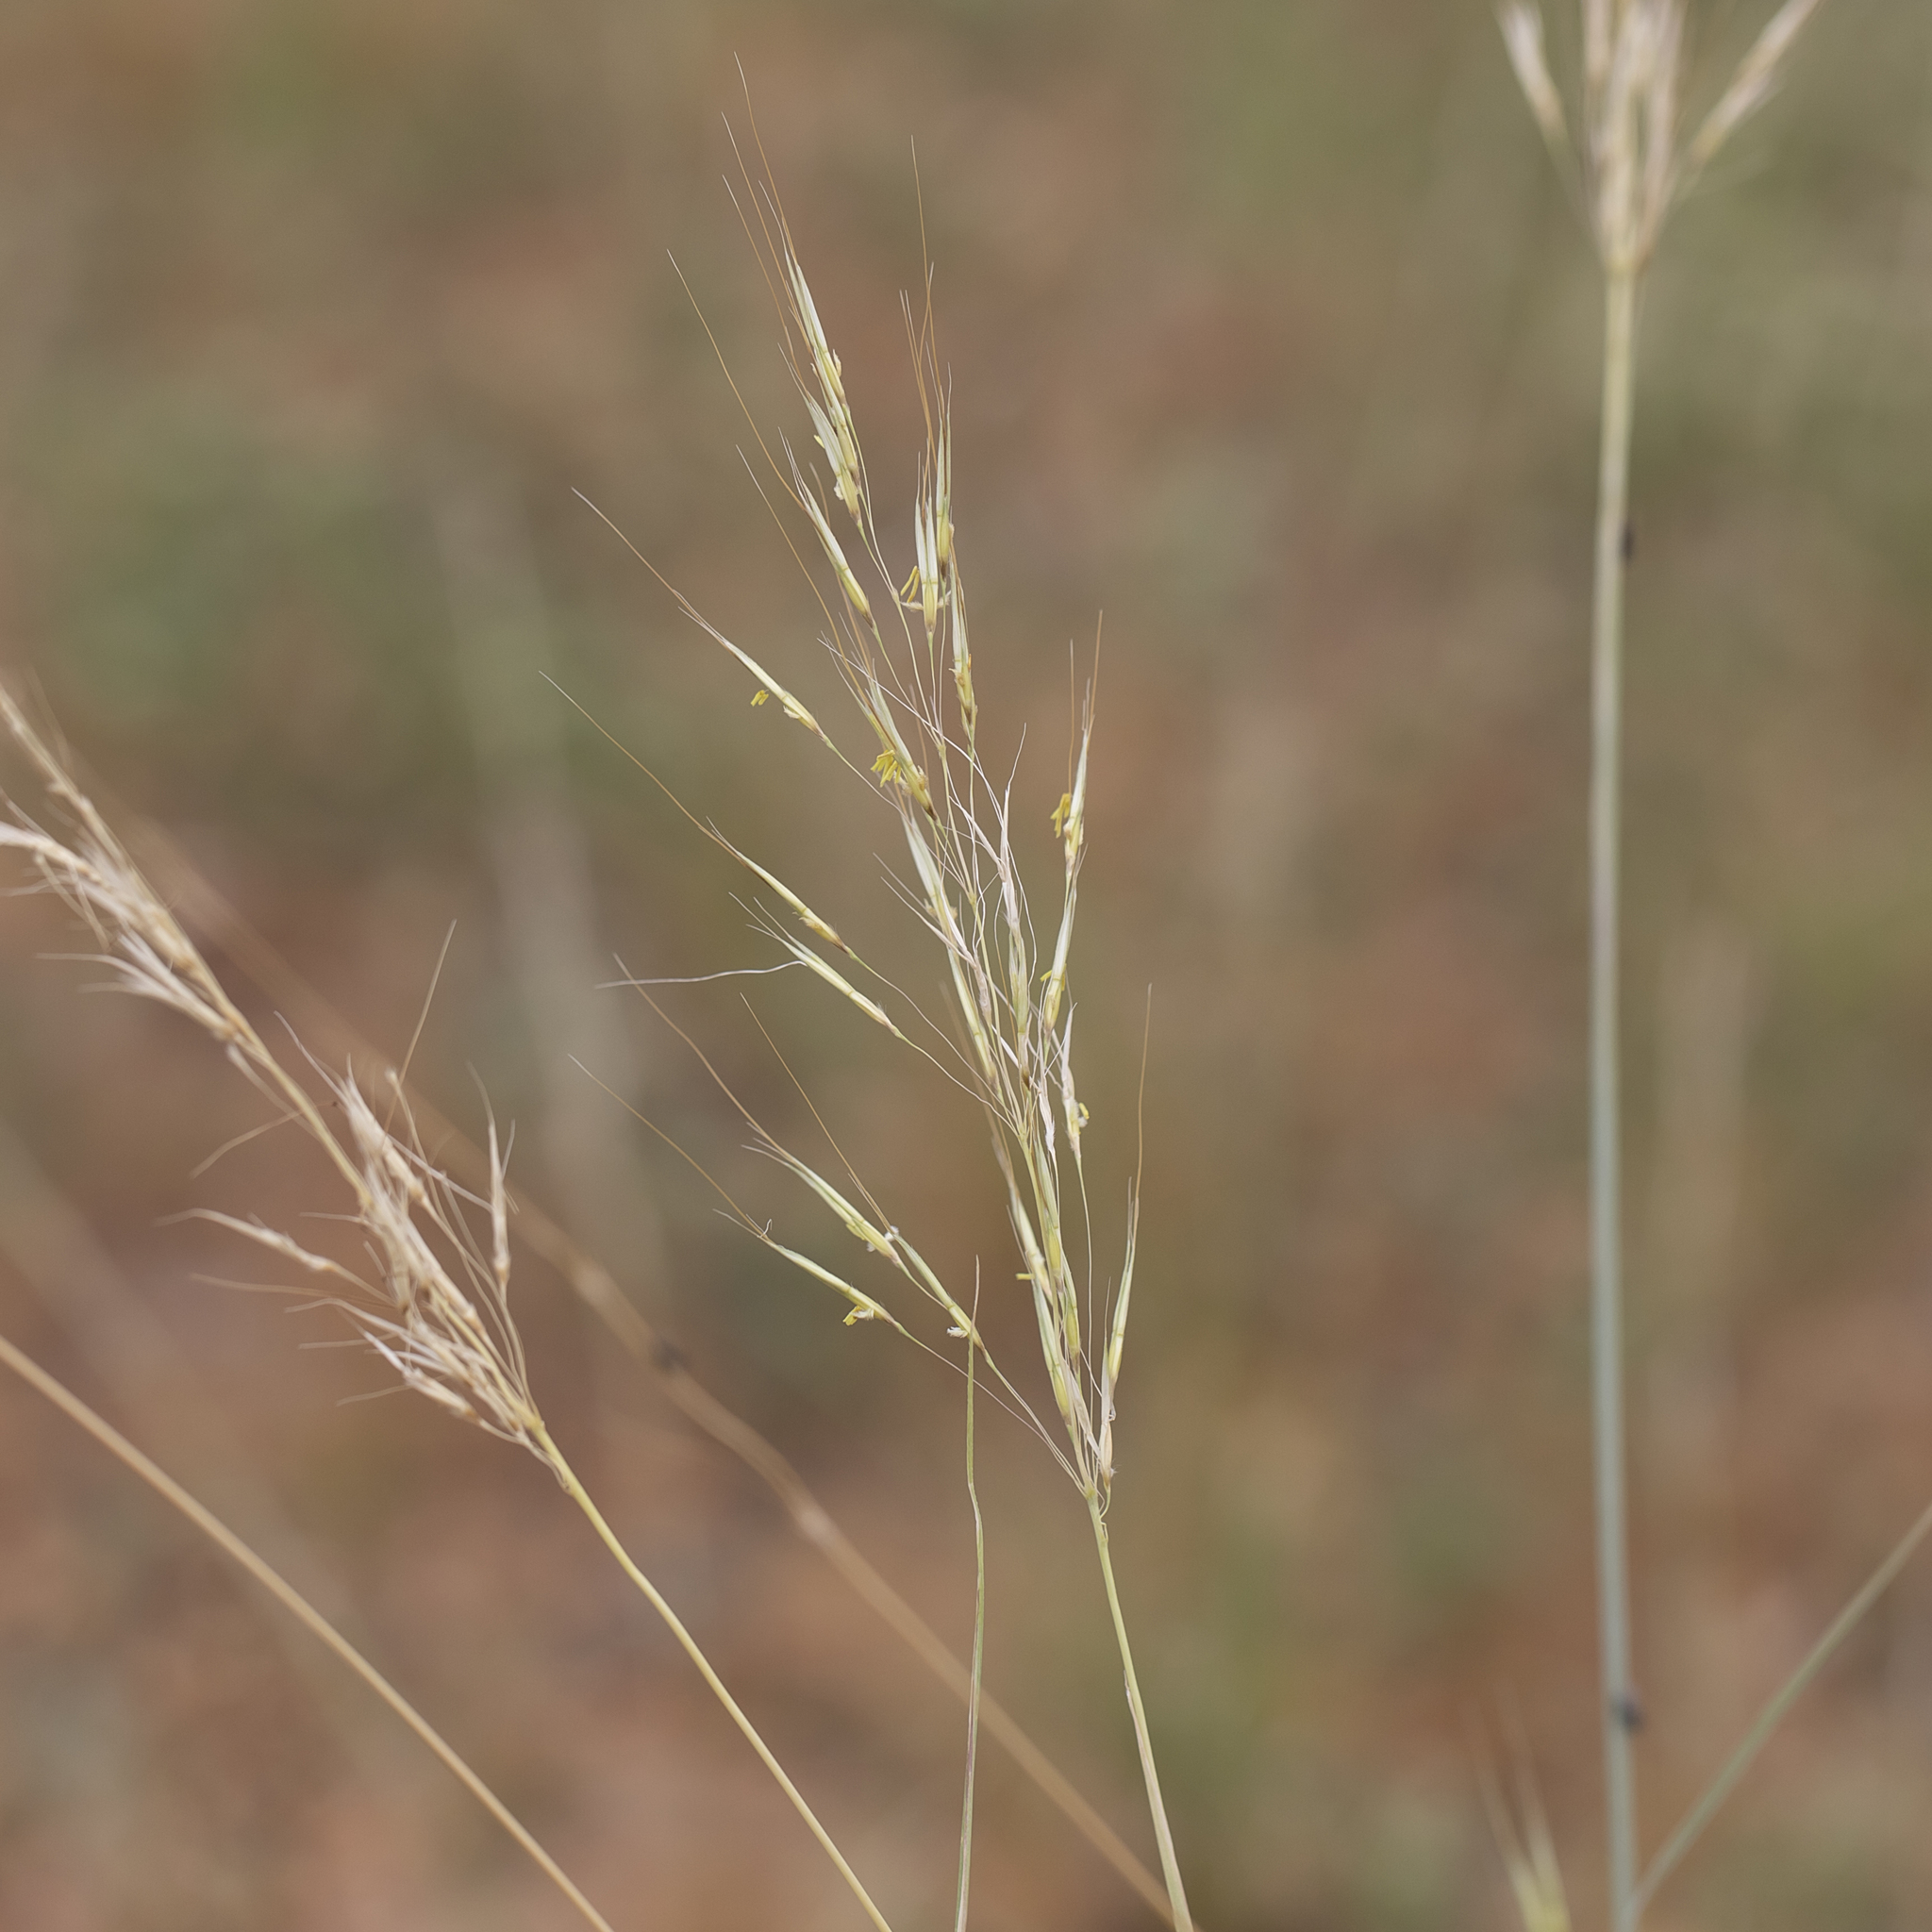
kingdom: Plantae
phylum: Tracheophyta
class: Liliopsida
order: Poales
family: Poaceae
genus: Chrysopogon
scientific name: Chrysopogon fallax
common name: Golden beard grass
